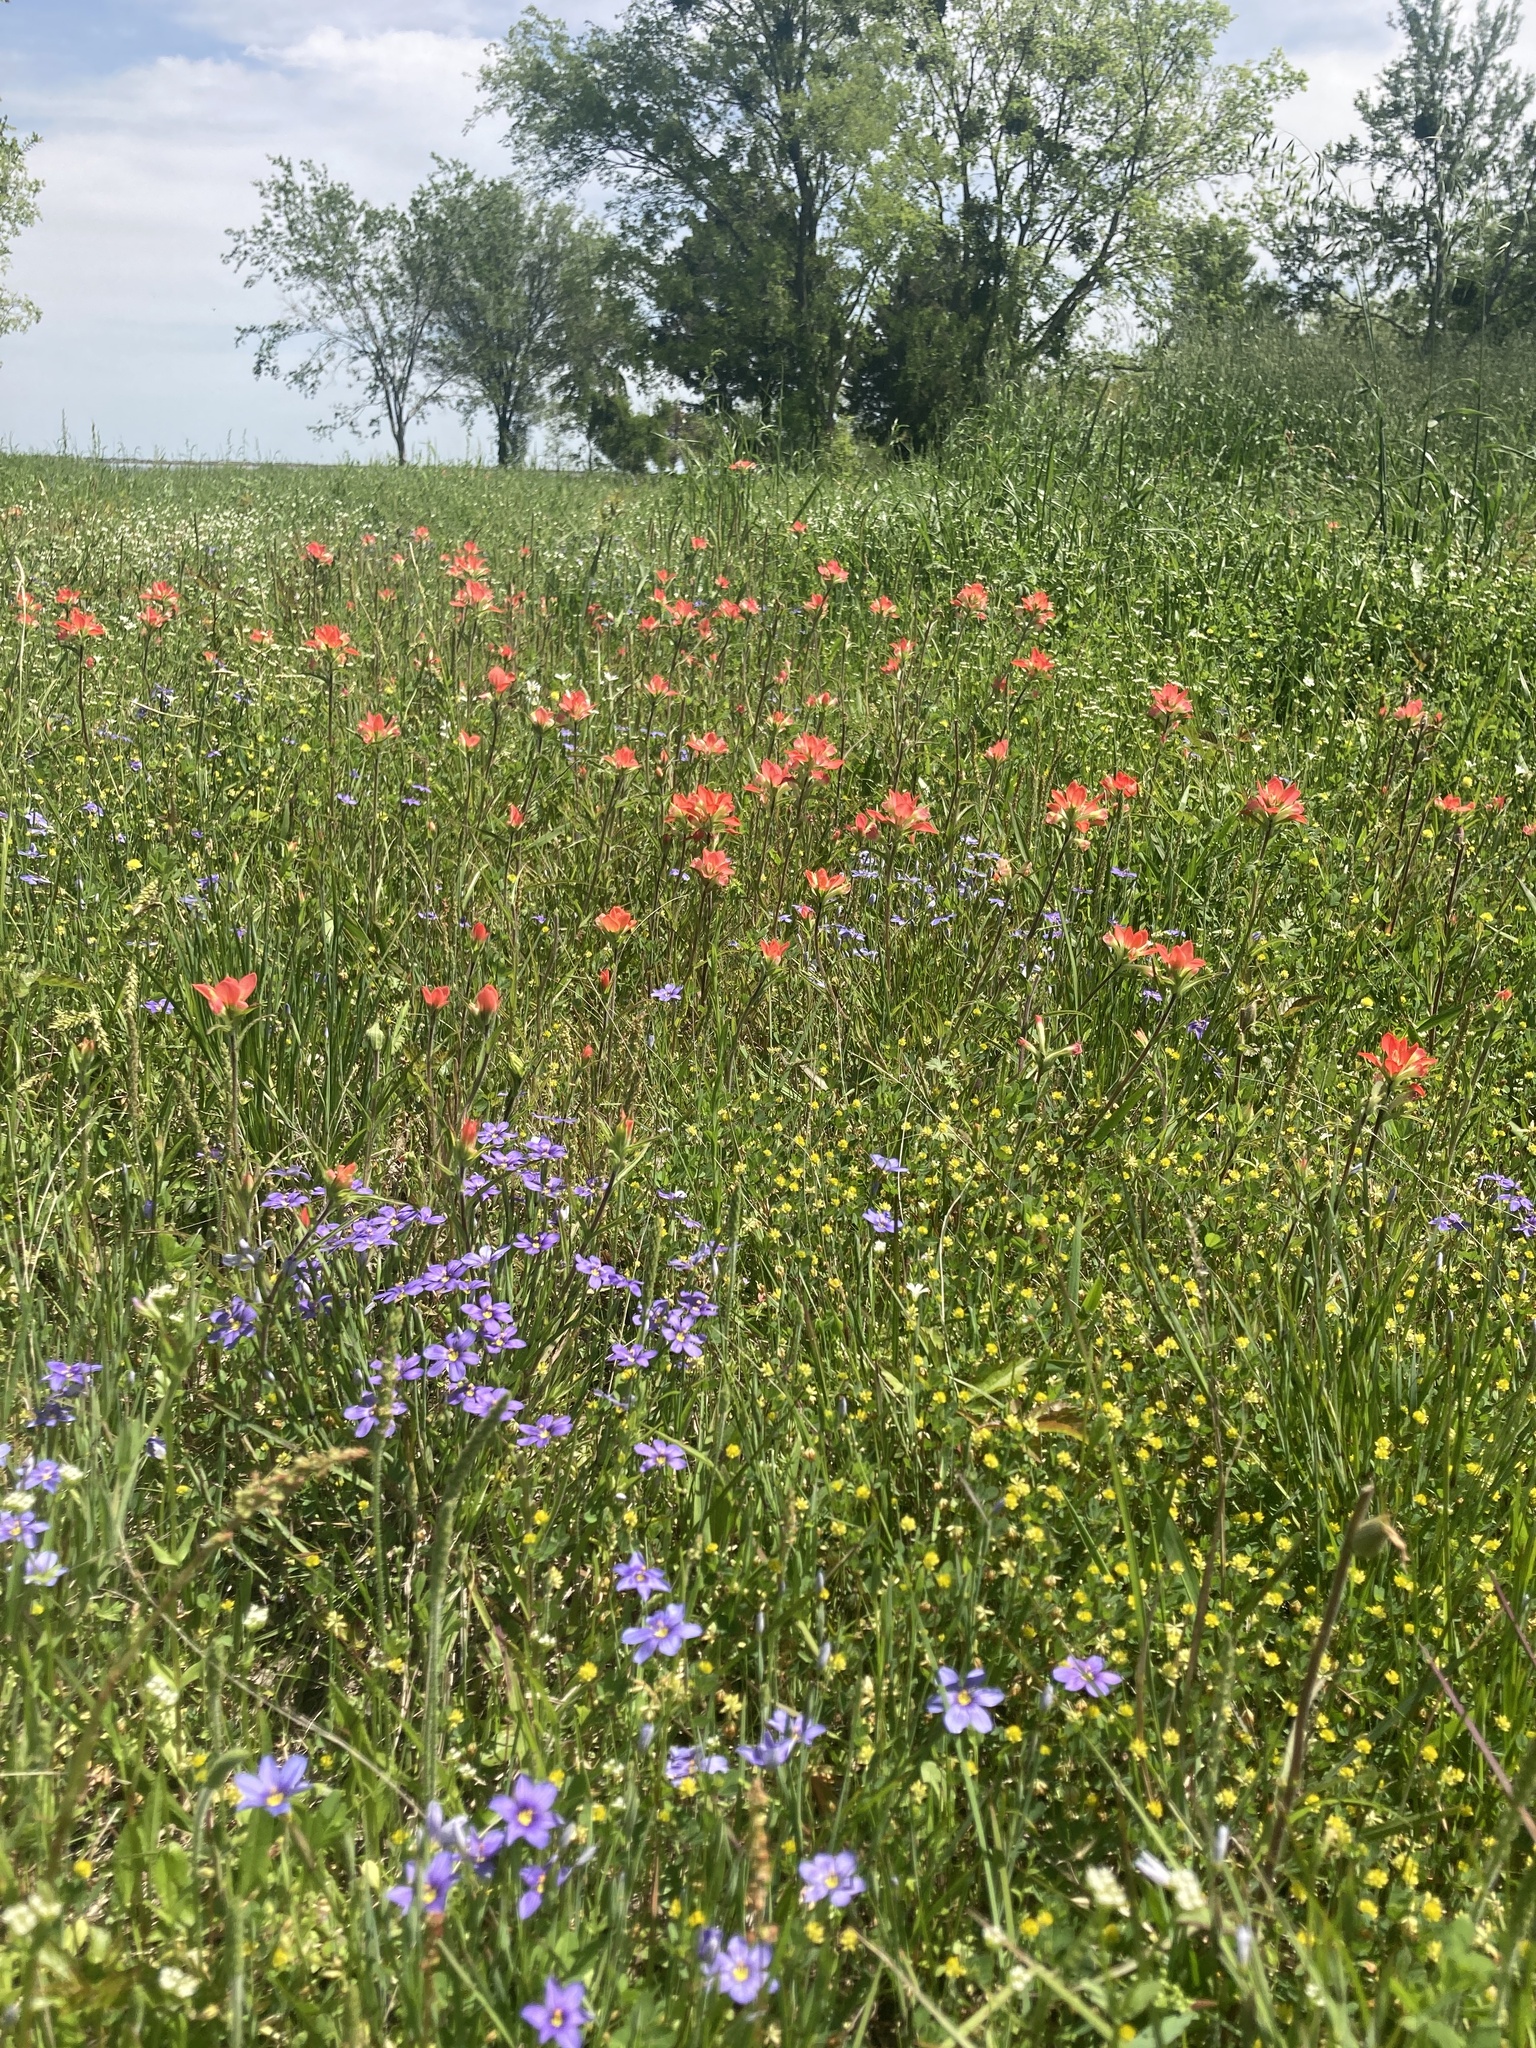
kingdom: Plantae
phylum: Tracheophyta
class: Magnoliopsida
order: Lamiales
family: Orobanchaceae
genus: Castilleja
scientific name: Castilleja indivisa
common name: Texas paintbrush
